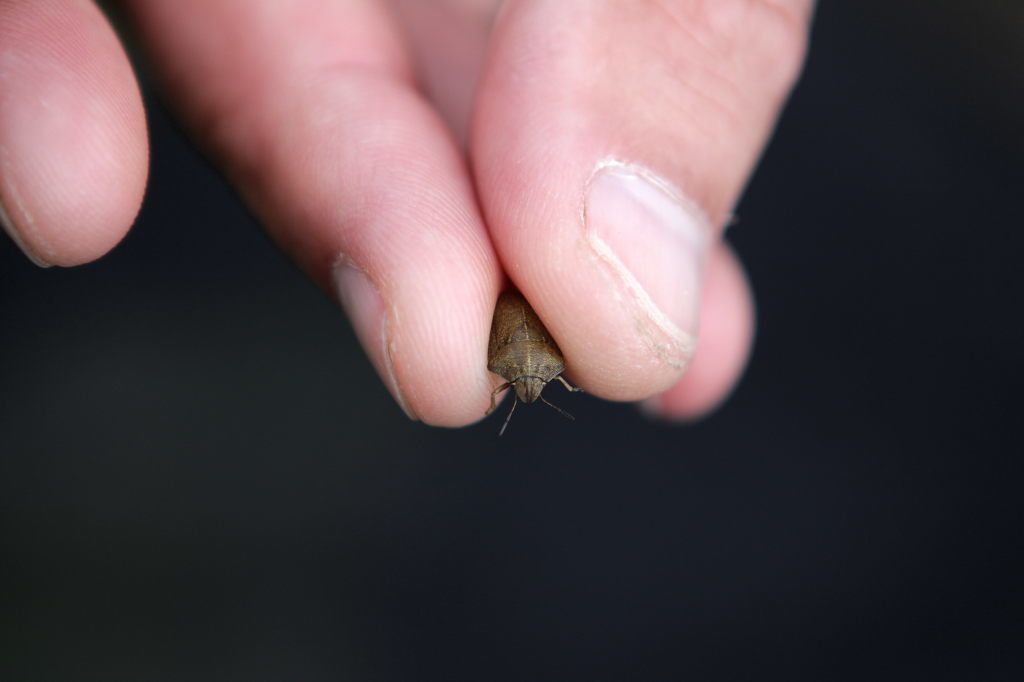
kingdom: Animalia
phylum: Arthropoda
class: Insecta
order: Hemiptera
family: Scutelleridae
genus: Eurygaster
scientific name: Eurygaster maura
